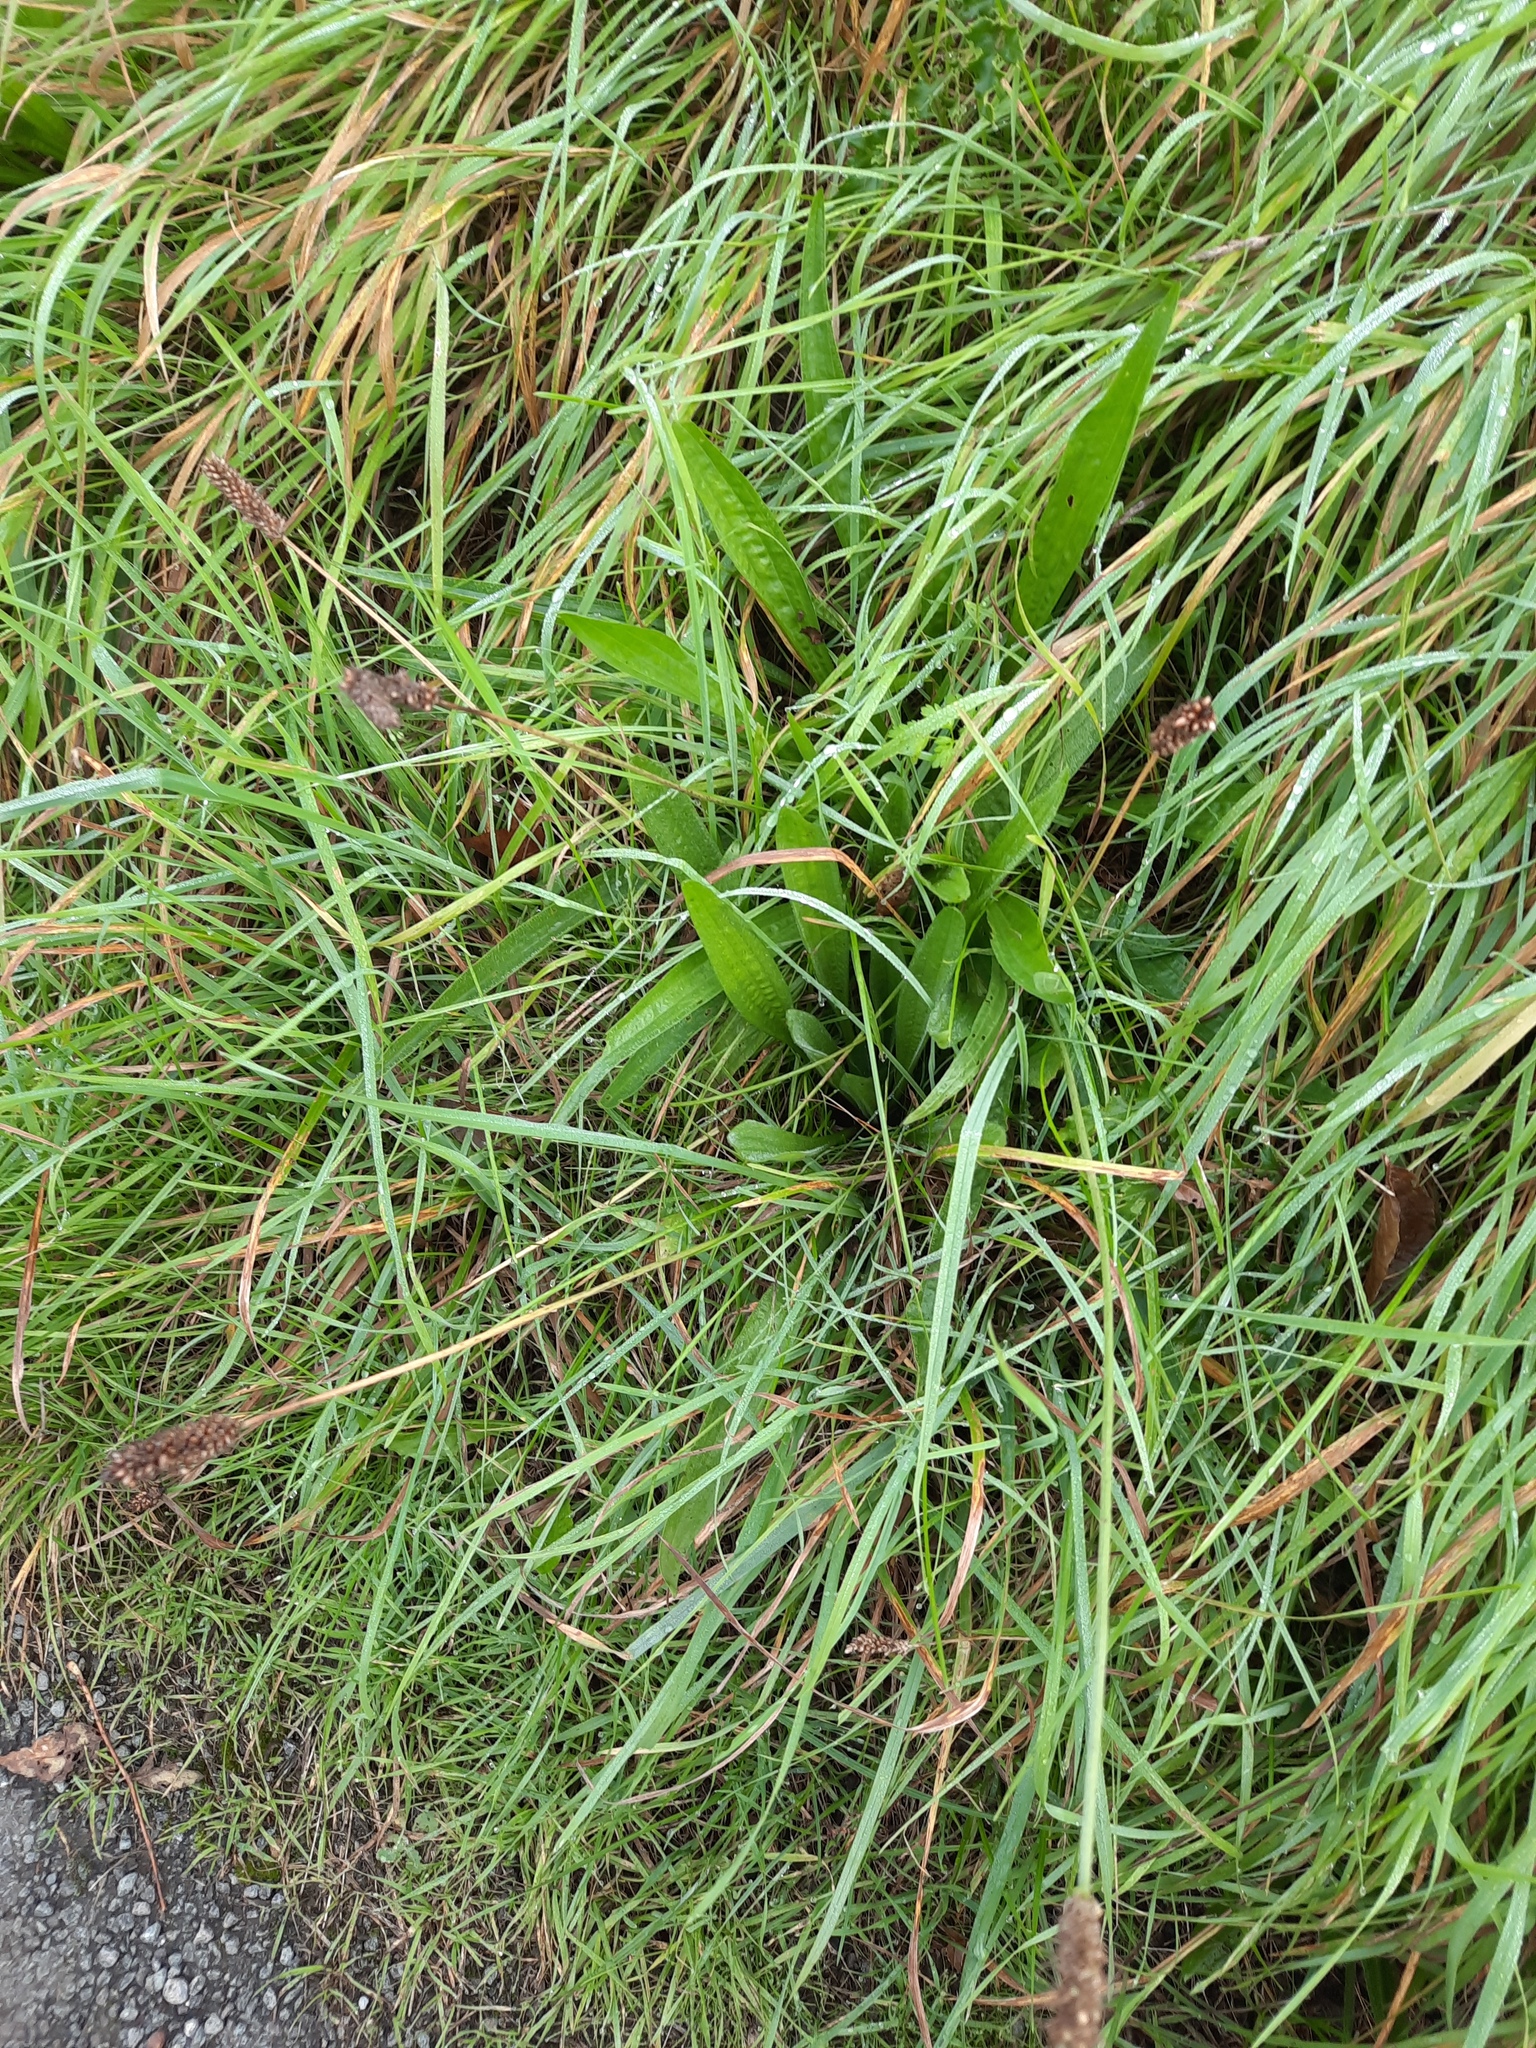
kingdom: Plantae
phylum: Tracheophyta
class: Magnoliopsida
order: Lamiales
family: Plantaginaceae
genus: Plantago
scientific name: Plantago lanceolata
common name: Ribwort plantain
